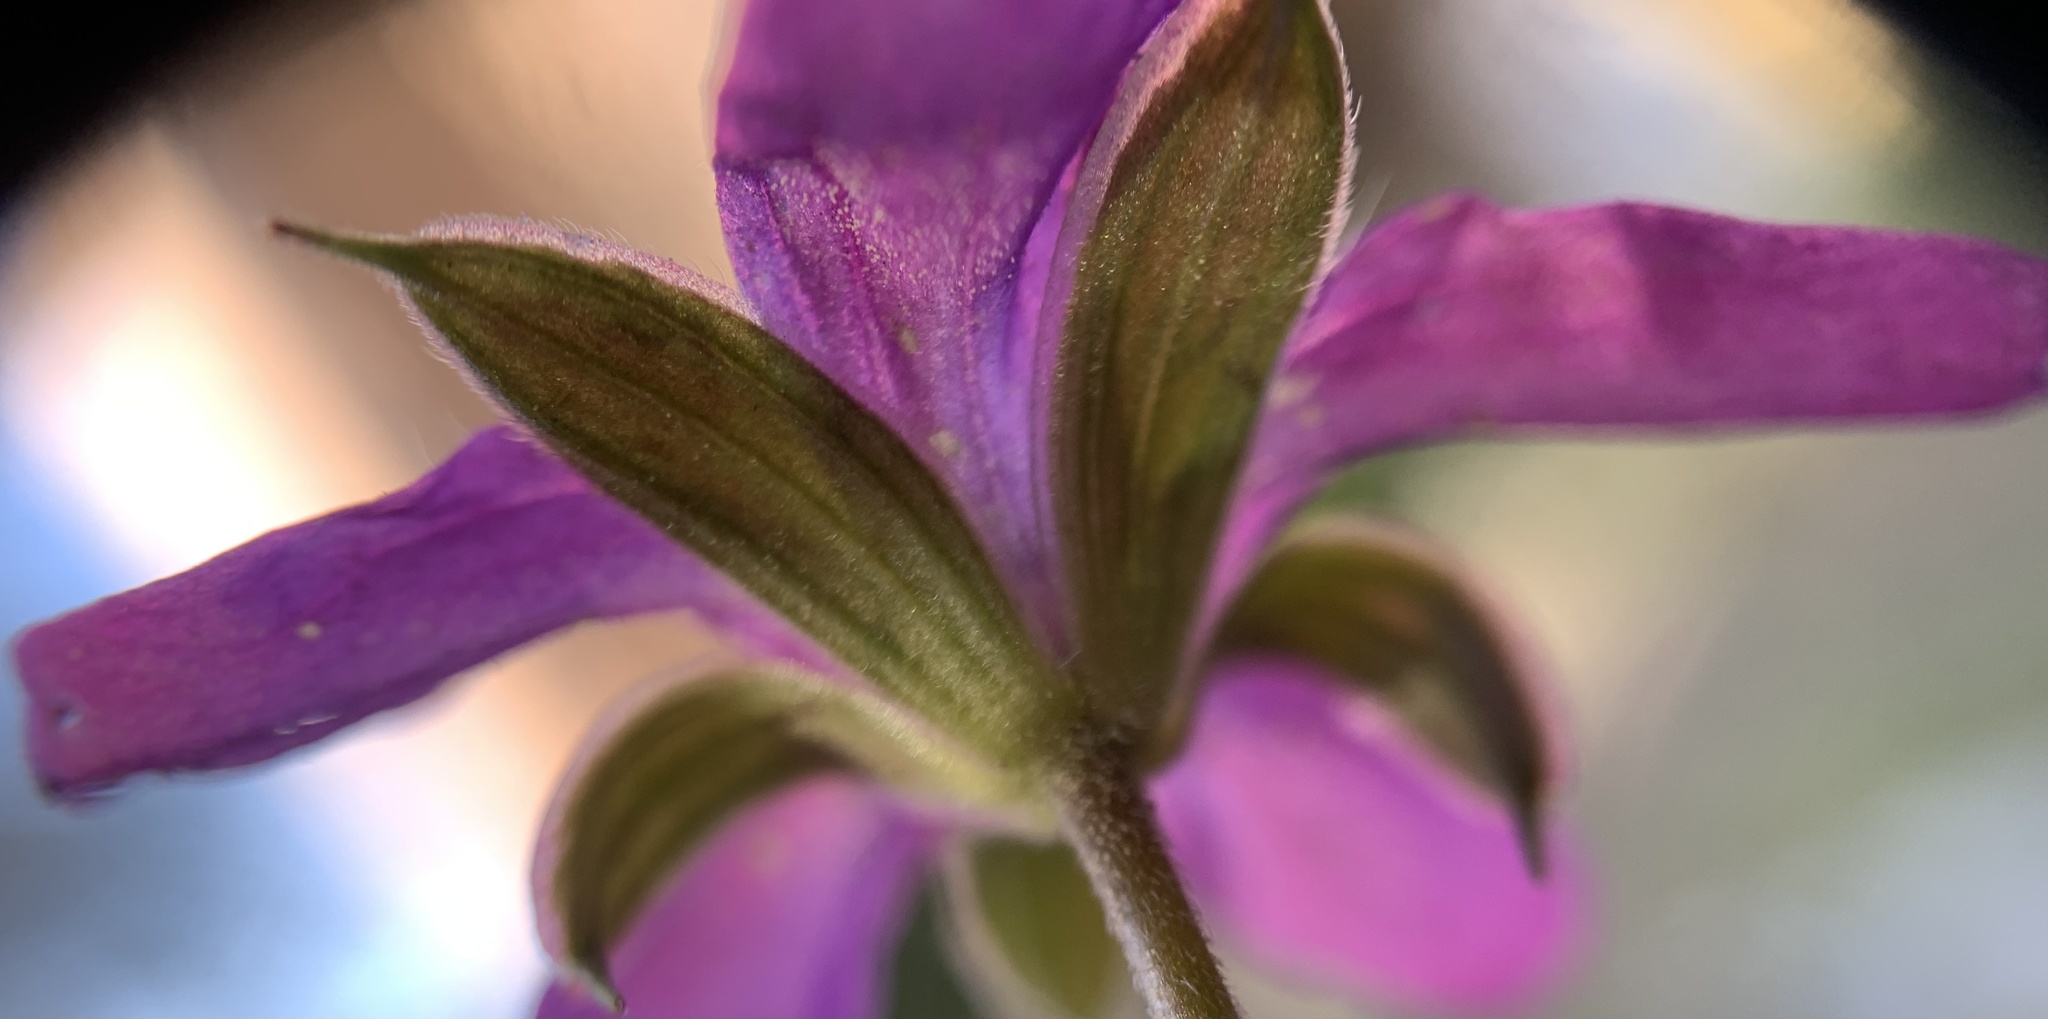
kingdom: Plantae
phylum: Tracheophyta
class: Magnoliopsida
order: Geraniales
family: Geraniaceae
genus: Geranium
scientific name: Geranium caespitosum
